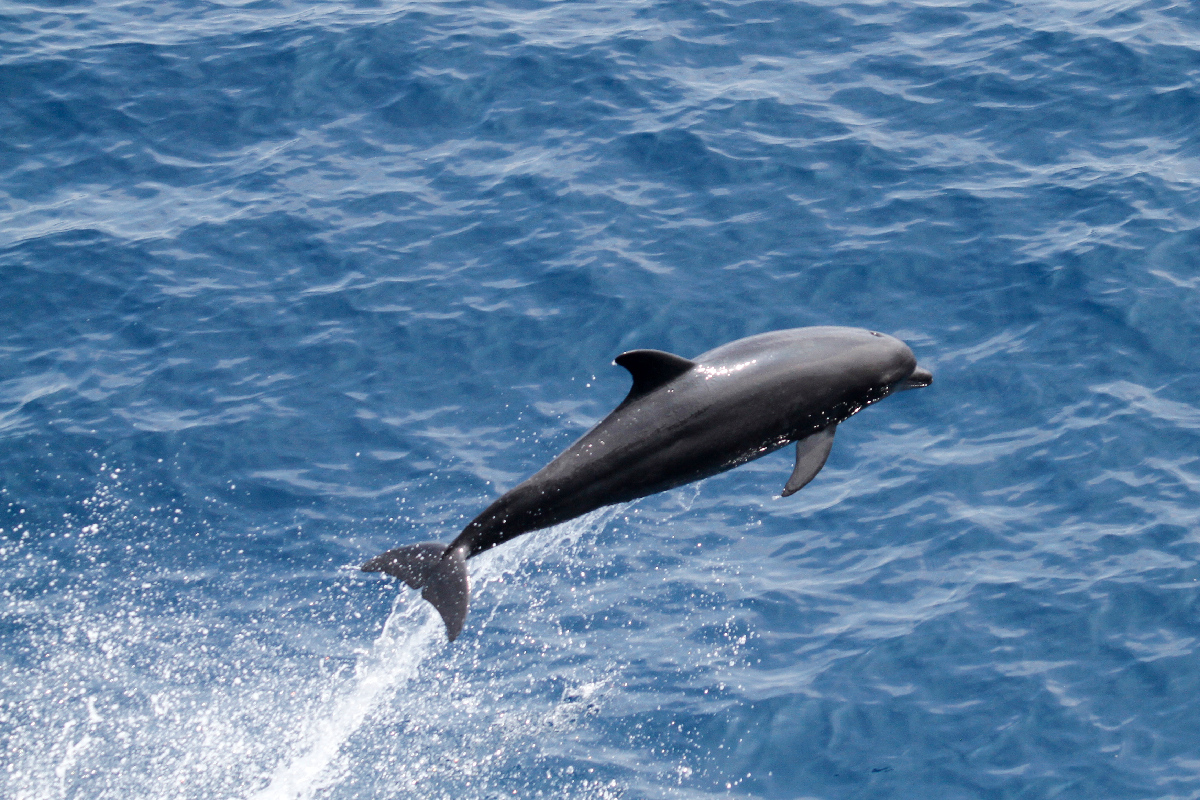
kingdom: Animalia
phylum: Chordata
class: Mammalia
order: Cetacea
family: Delphinidae
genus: Tursiops
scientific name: Tursiops truncatus
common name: Bottlenose dolphin
